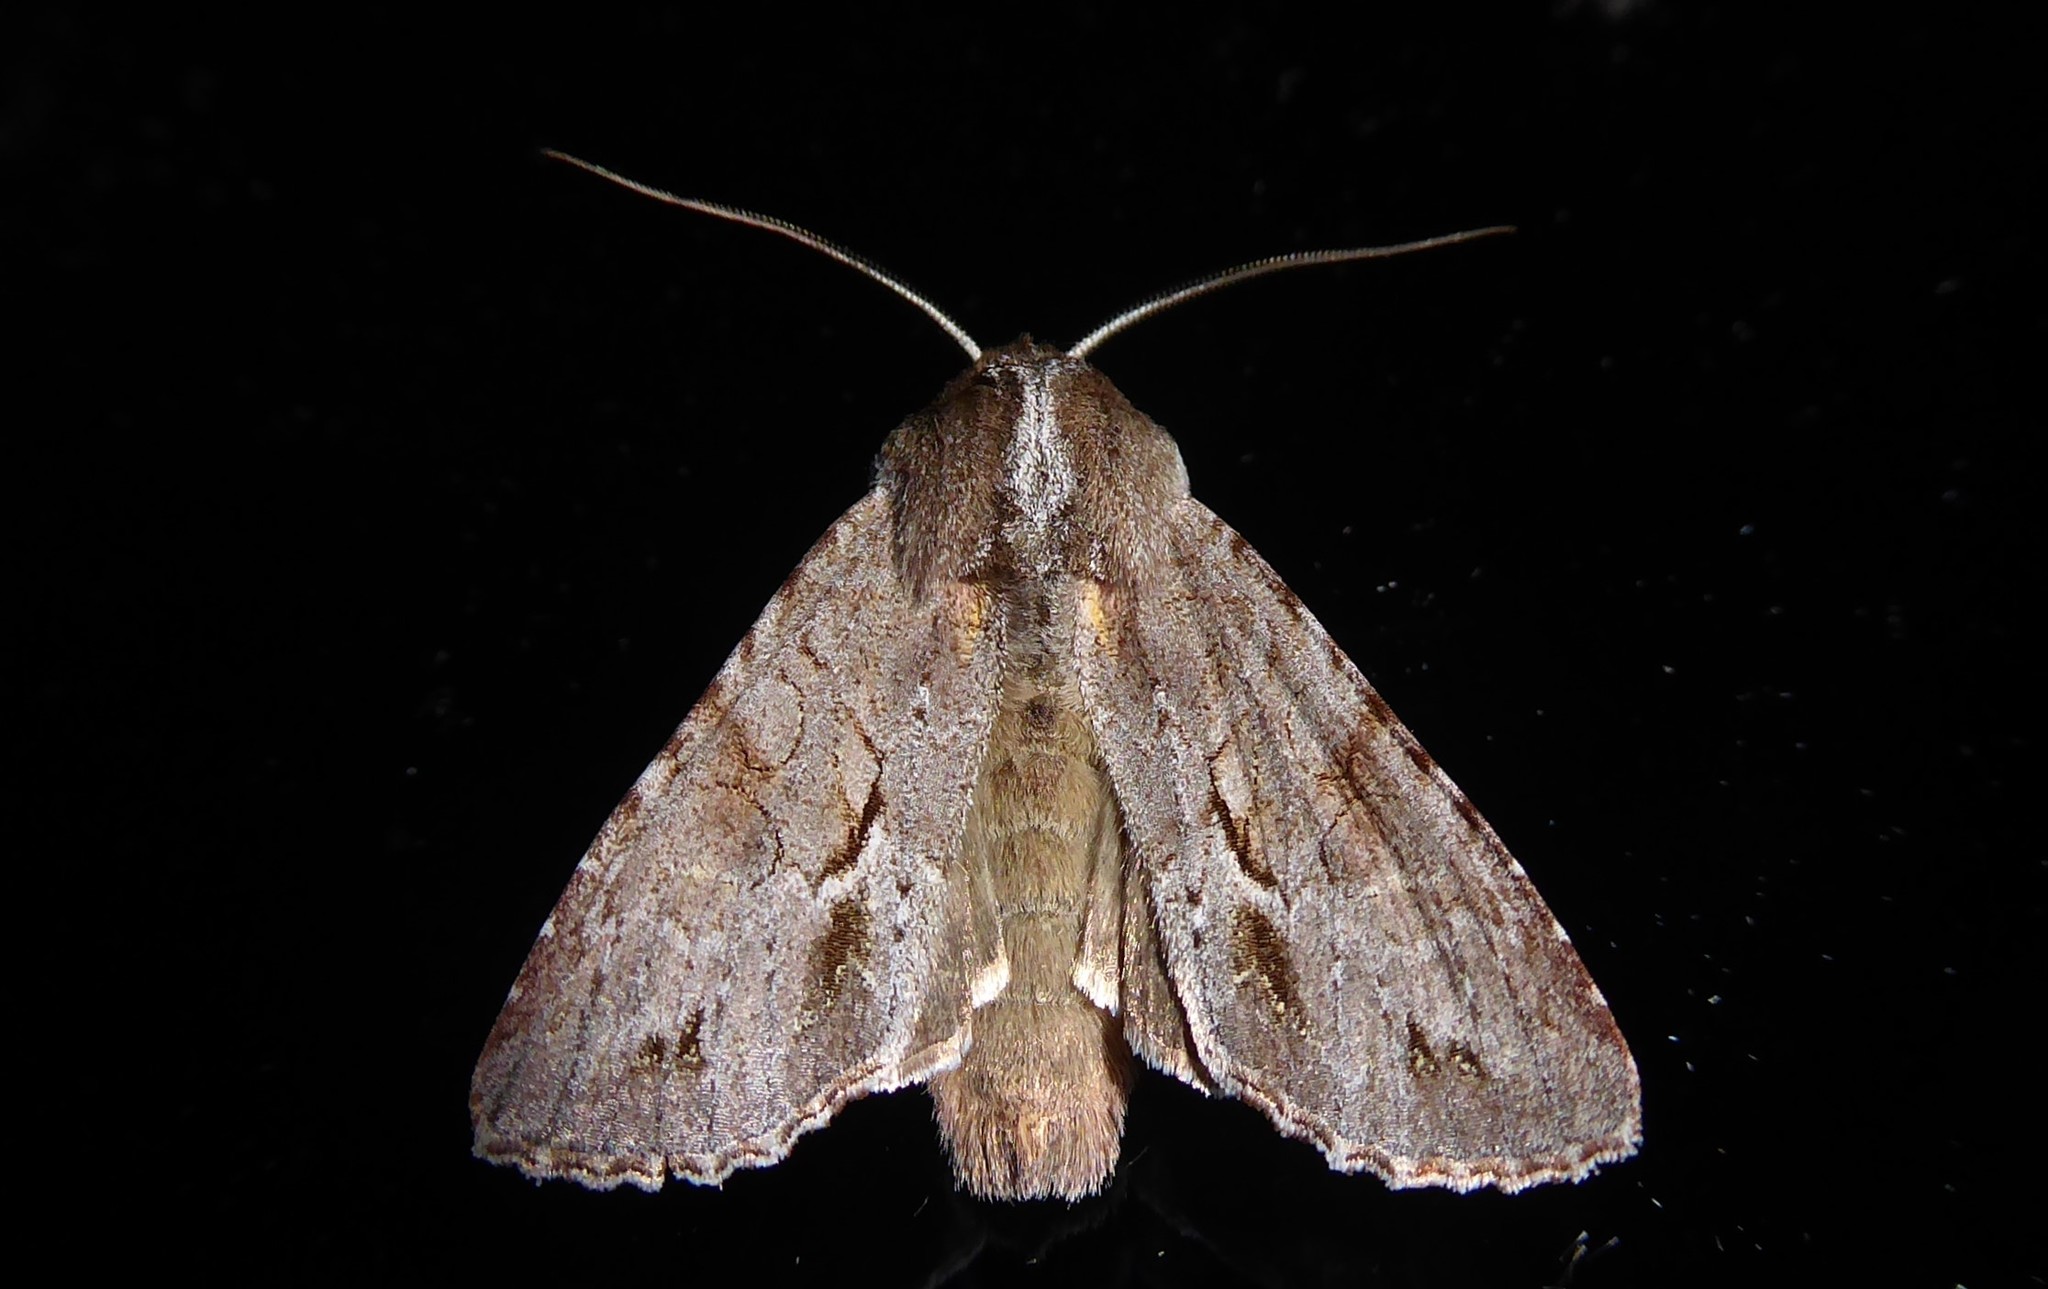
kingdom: Animalia
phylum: Arthropoda
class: Insecta
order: Lepidoptera
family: Noctuidae
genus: Ichneutica
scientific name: Ichneutica
